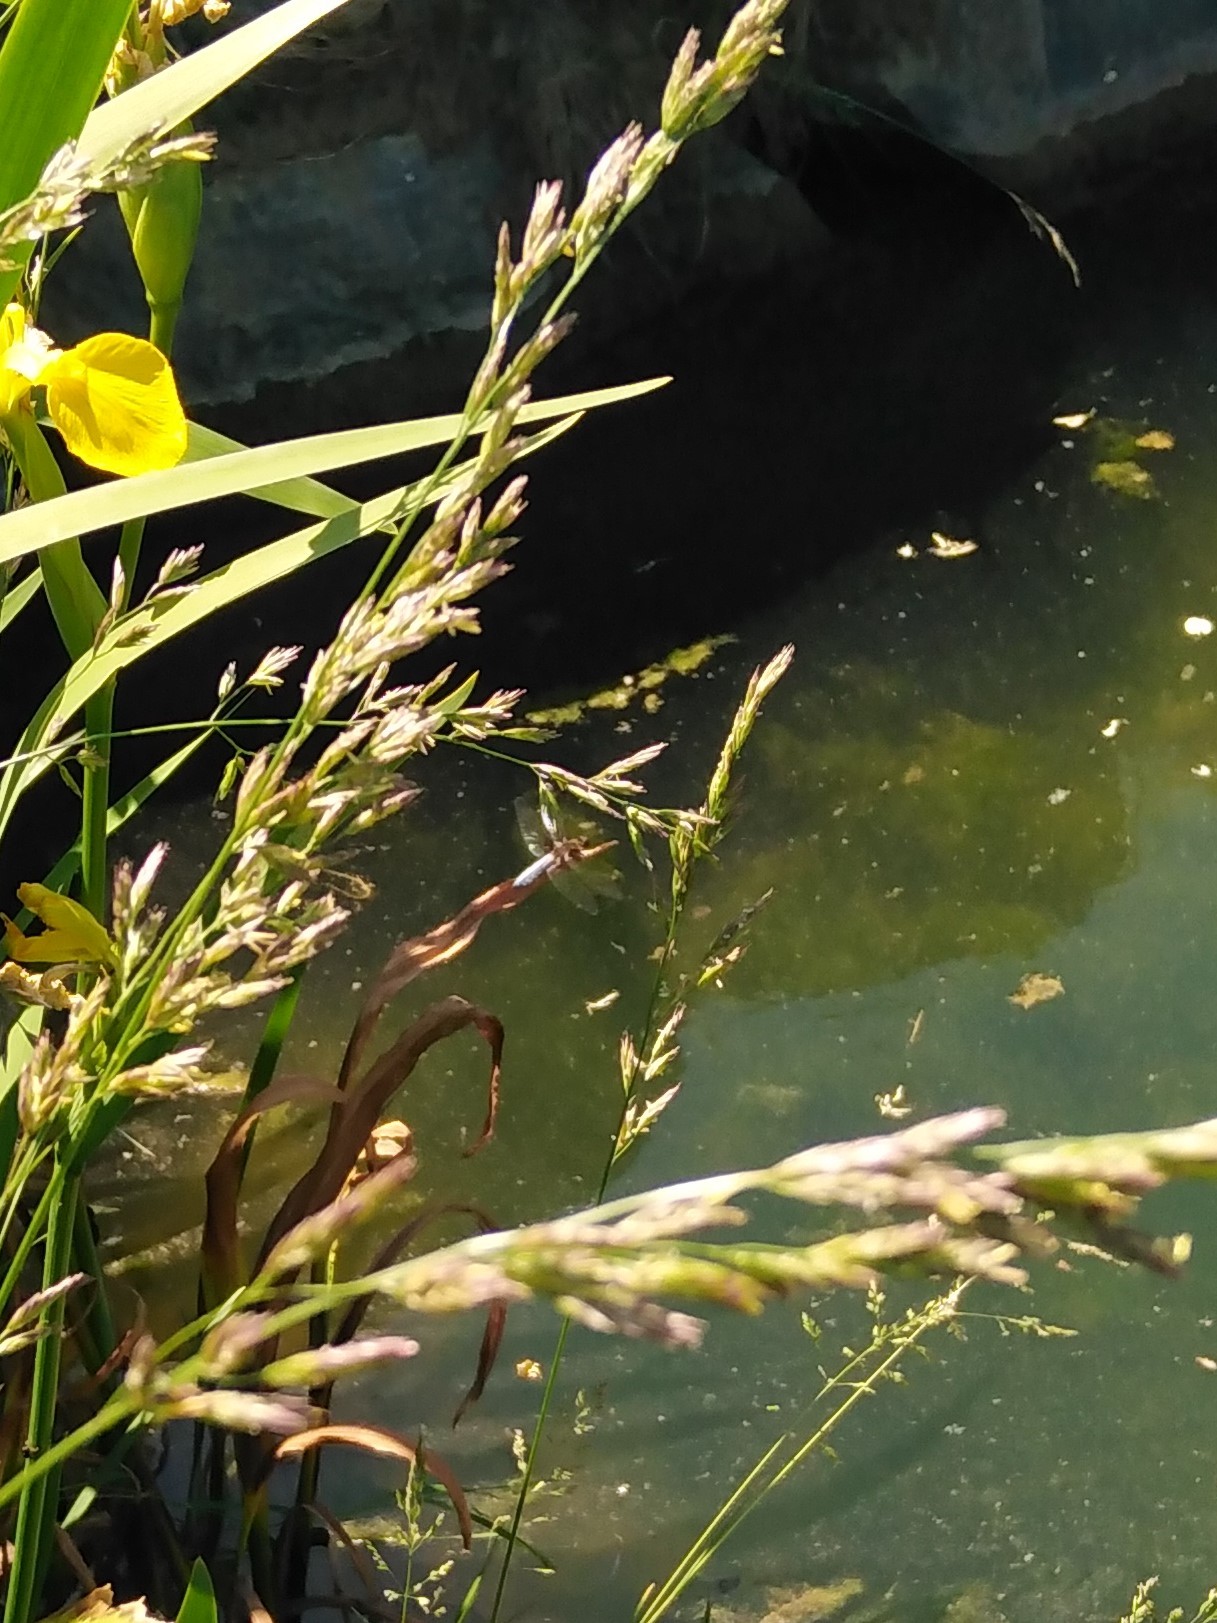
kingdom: Animalia
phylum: Arthropoda
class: Insecta
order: Odonata
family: Libellulidae
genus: Libellula
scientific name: Libellula depressa
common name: Broad-bodied chaser
